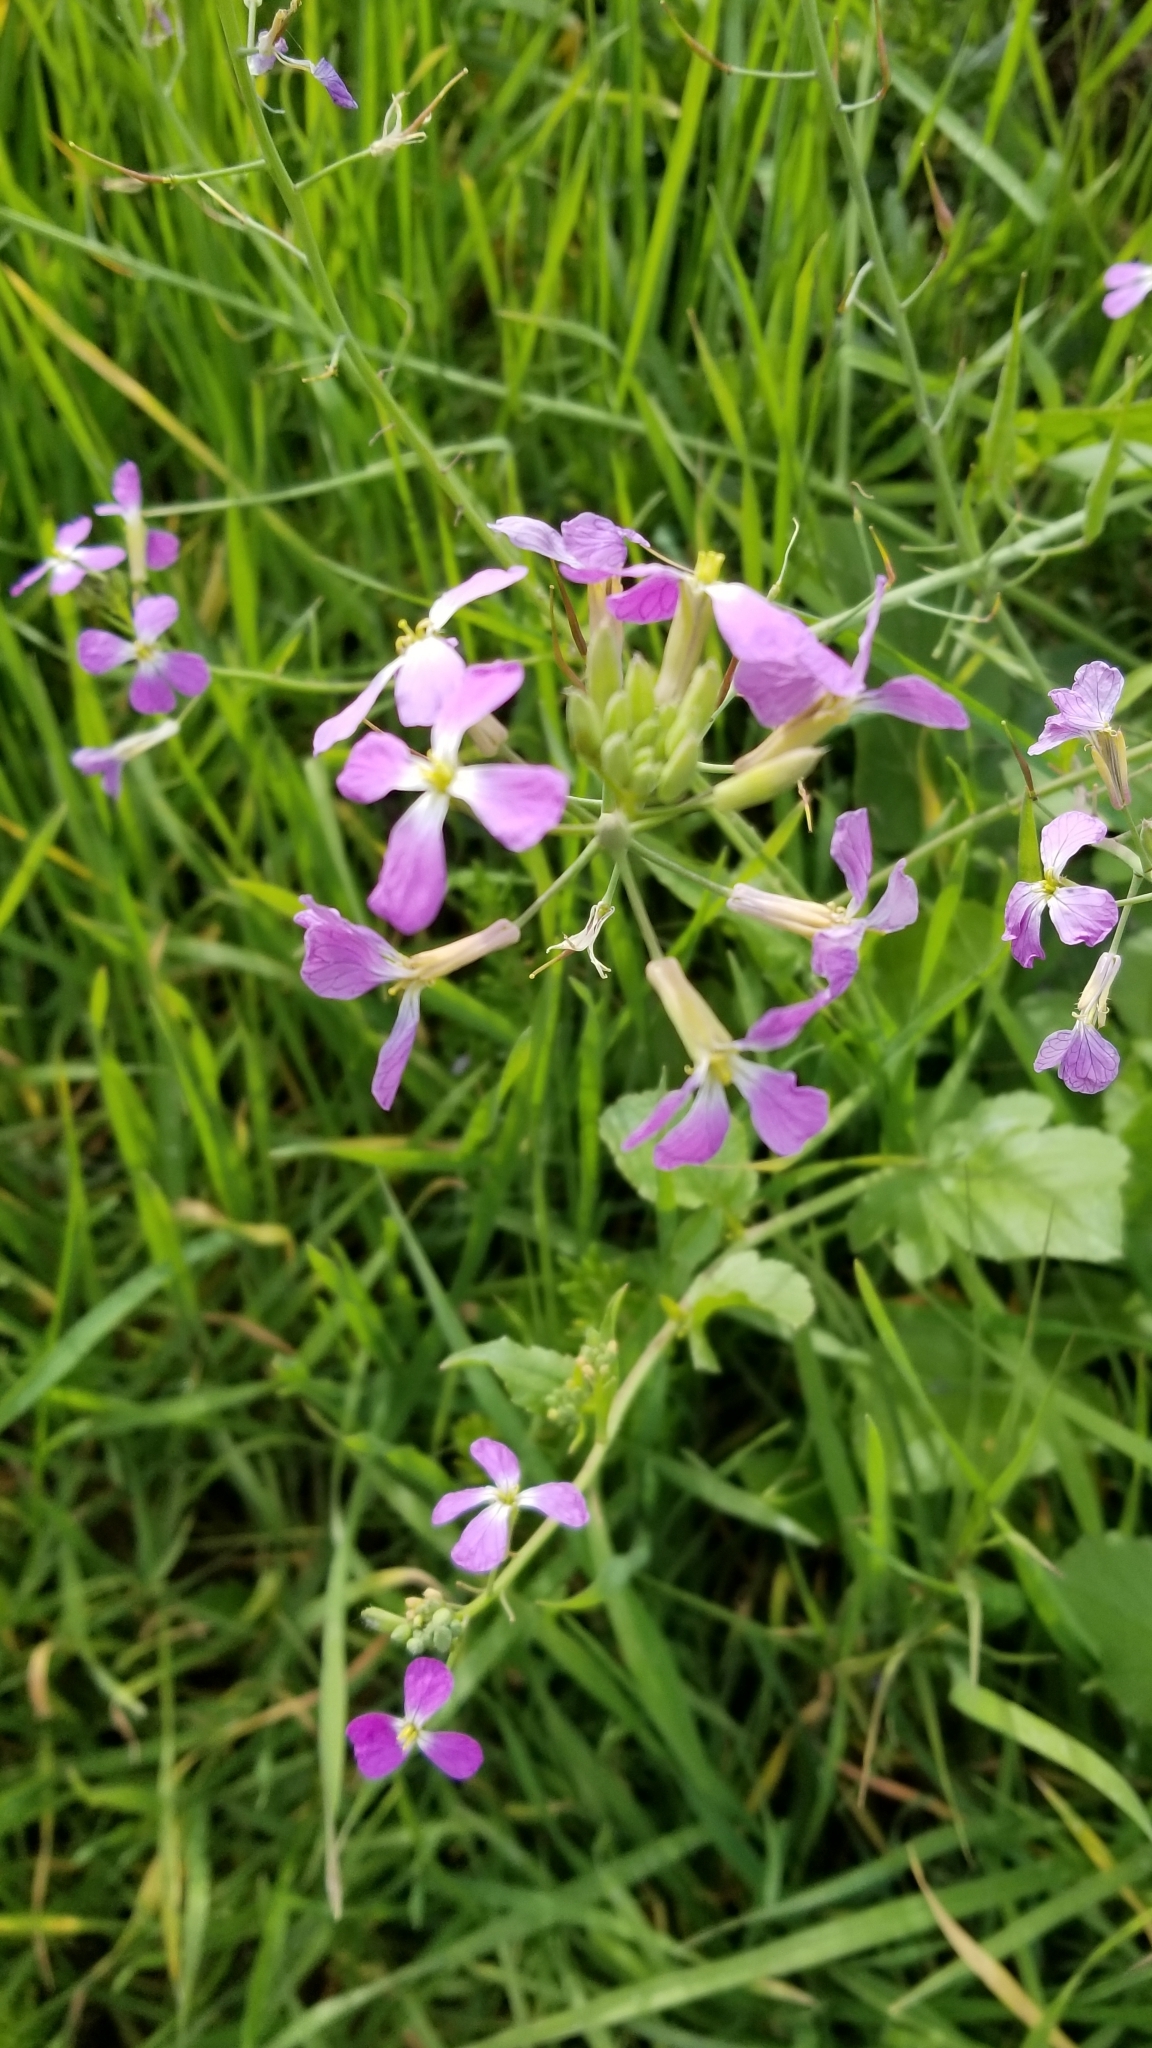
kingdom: Plantae
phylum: Tracheophyta
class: Magnoliopsida
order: Brassicales
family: Brassicaceae
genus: Raphanus
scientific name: Raphanus sativus
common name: Cultivated radish
